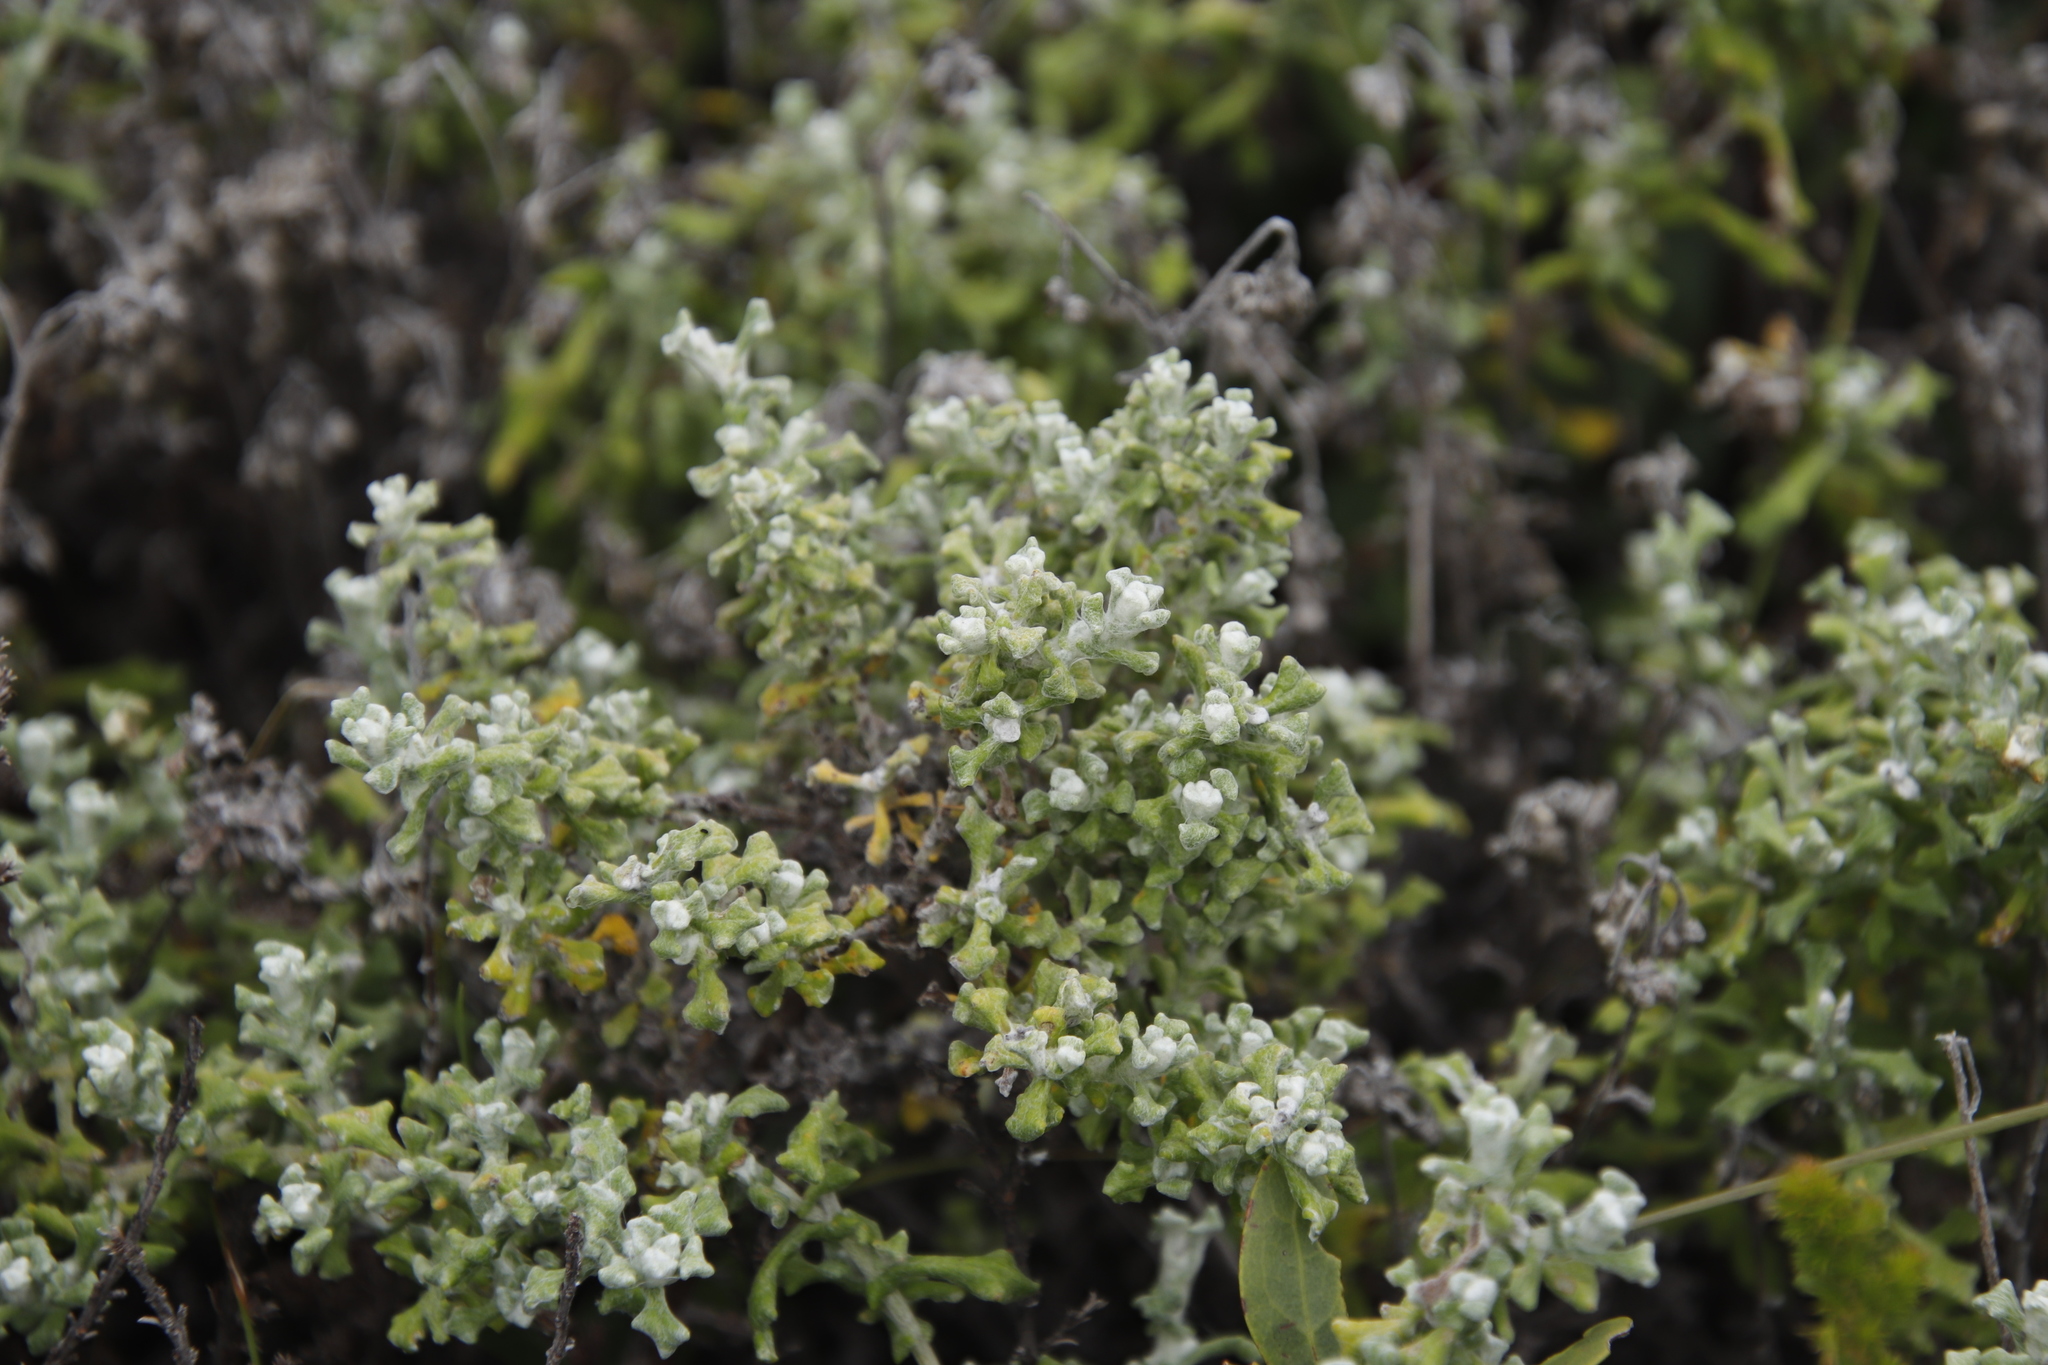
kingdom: Plantae
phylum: Tracheophyta
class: Magnoliopsida
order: Asterales
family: Asteraceae
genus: Helichrysum
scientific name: Helichrysum patulum
